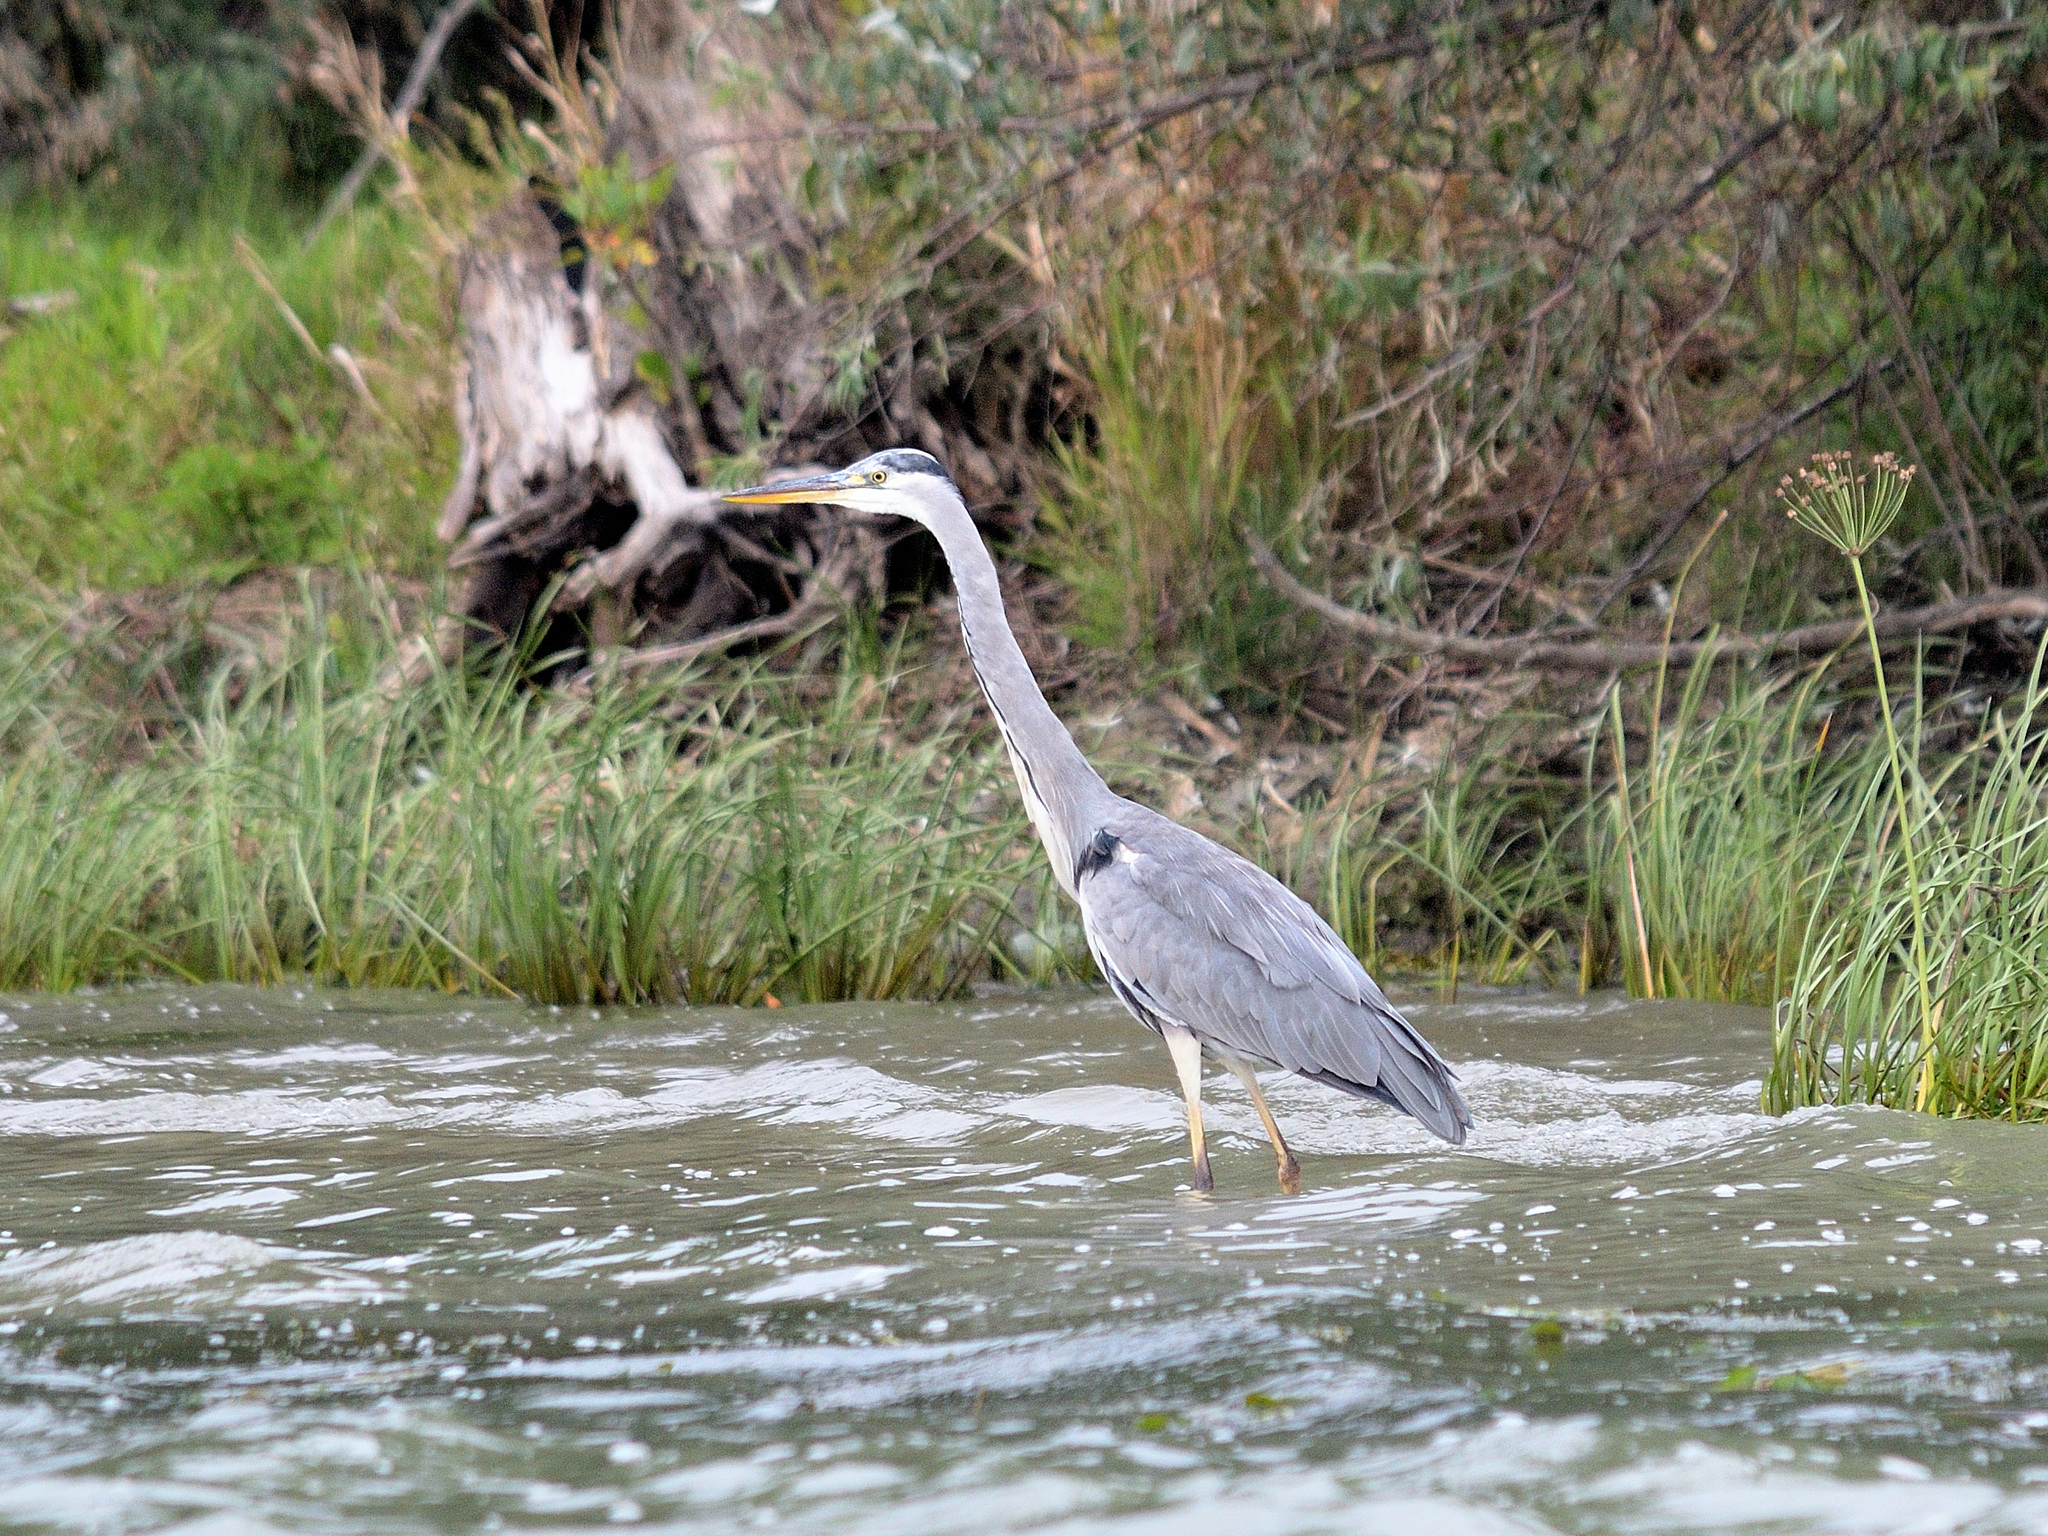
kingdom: Animalia
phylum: Chordata
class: Aves
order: Pelecaniformes
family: Ardeidae
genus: Ardea
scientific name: Ardea cinerea
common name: Grey heron
